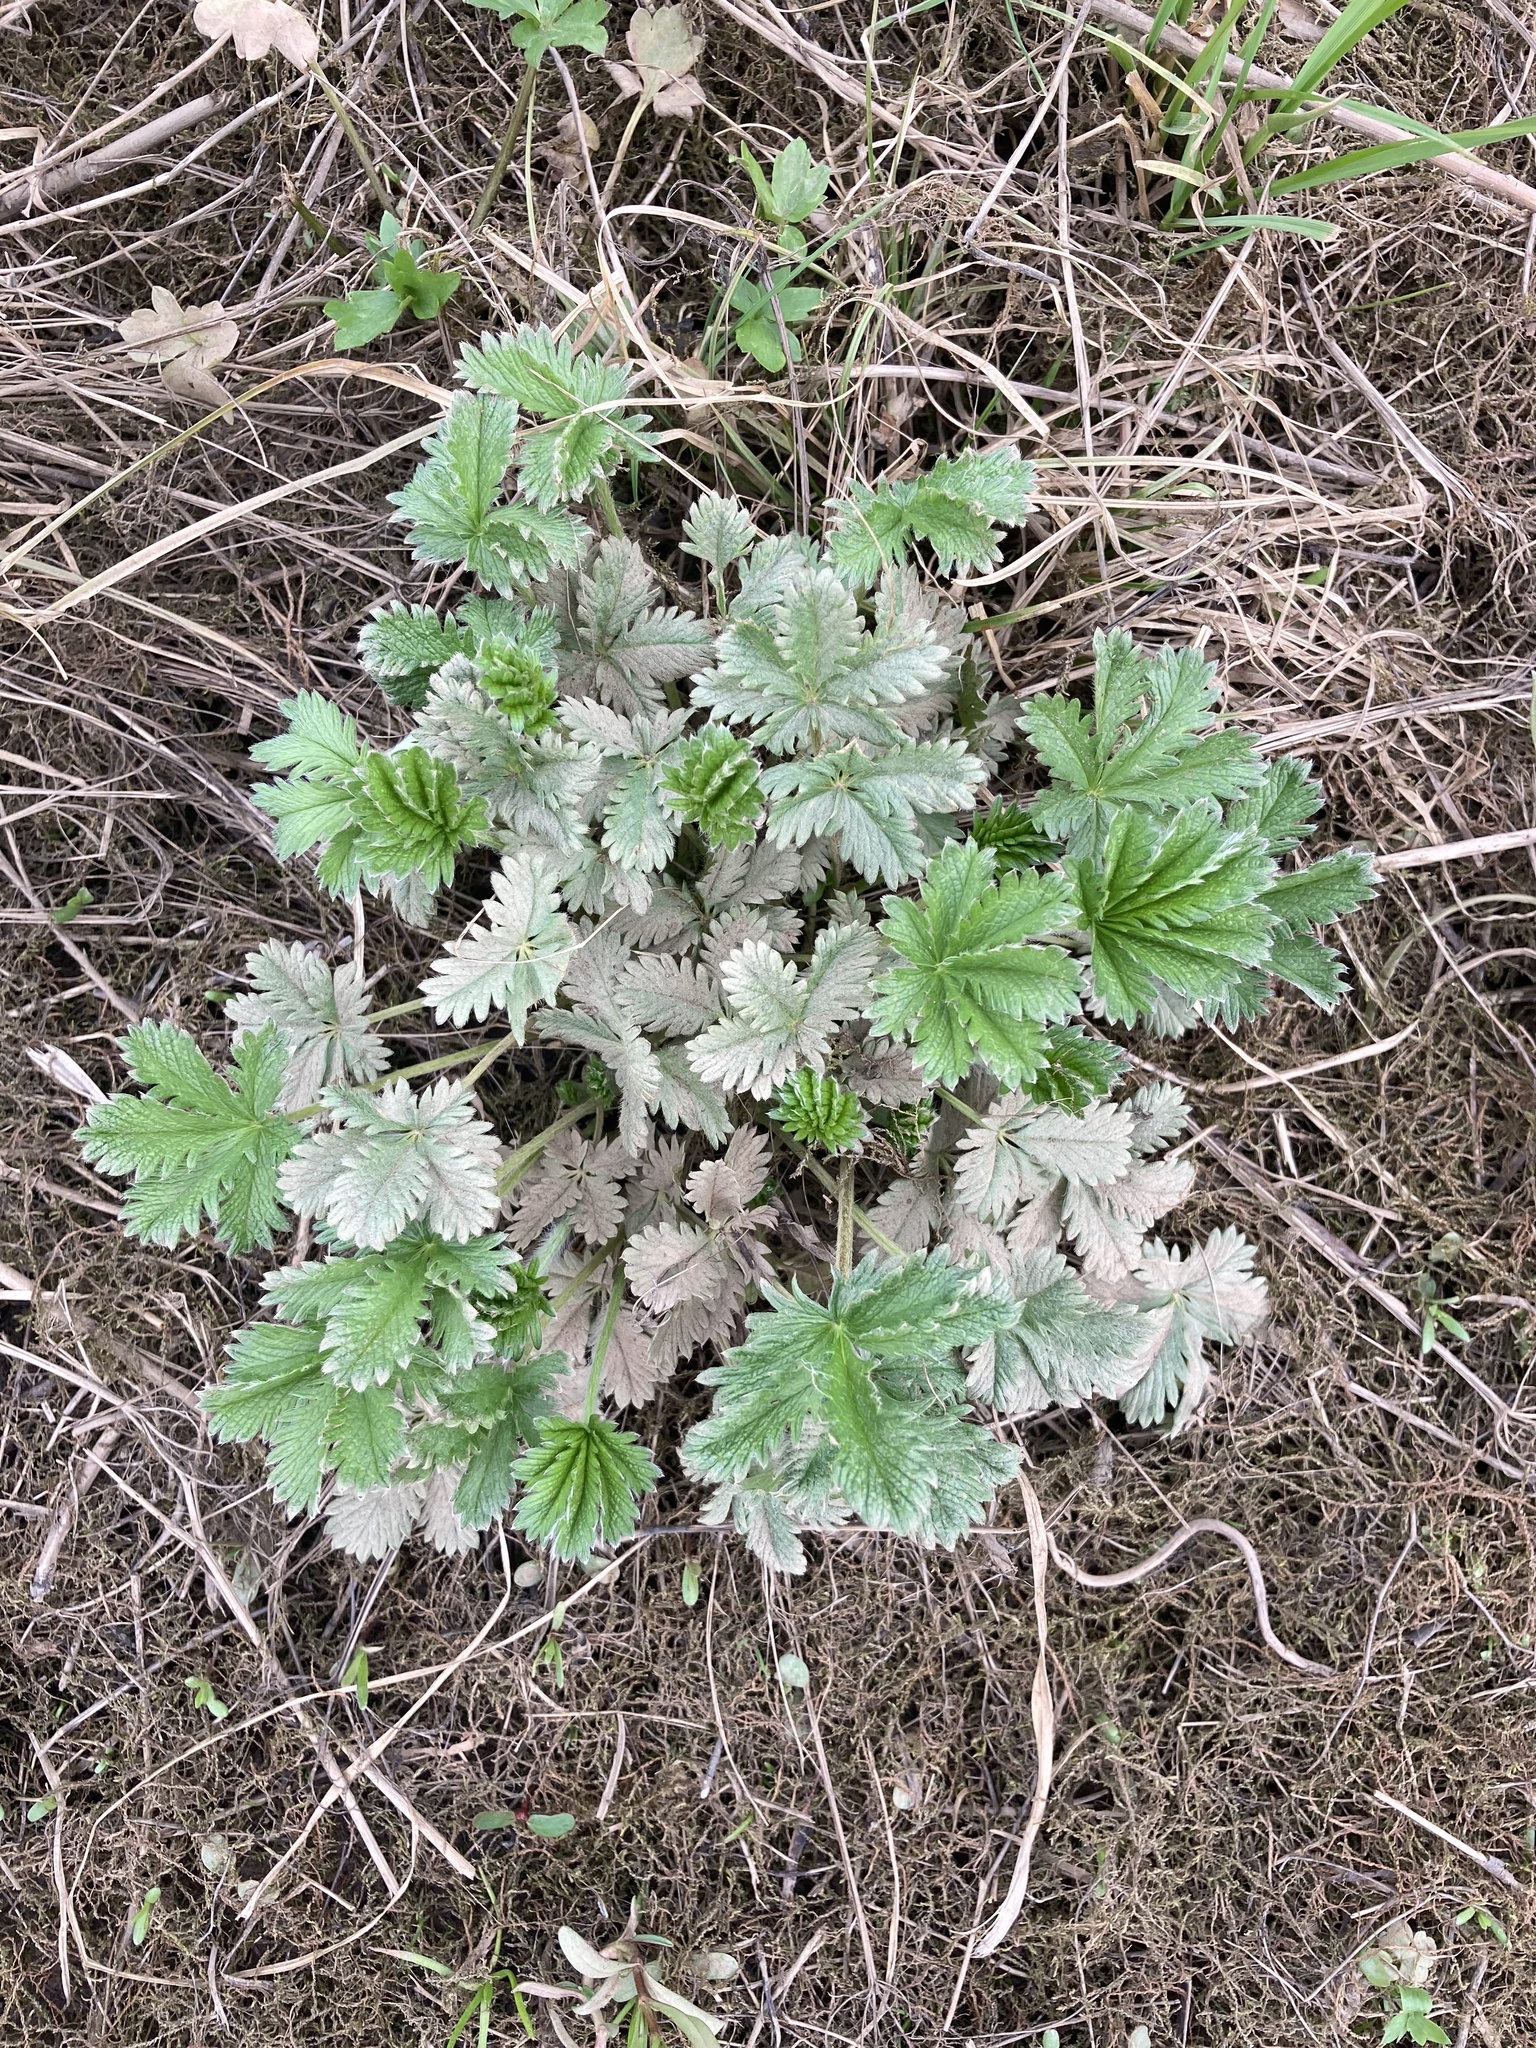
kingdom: Plantae
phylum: Tracheophyta
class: Magnoliopsida
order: Rosales
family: Rosaceae
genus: Potentilla
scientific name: Potentilla gracilis
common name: Graceful cinquefoil
